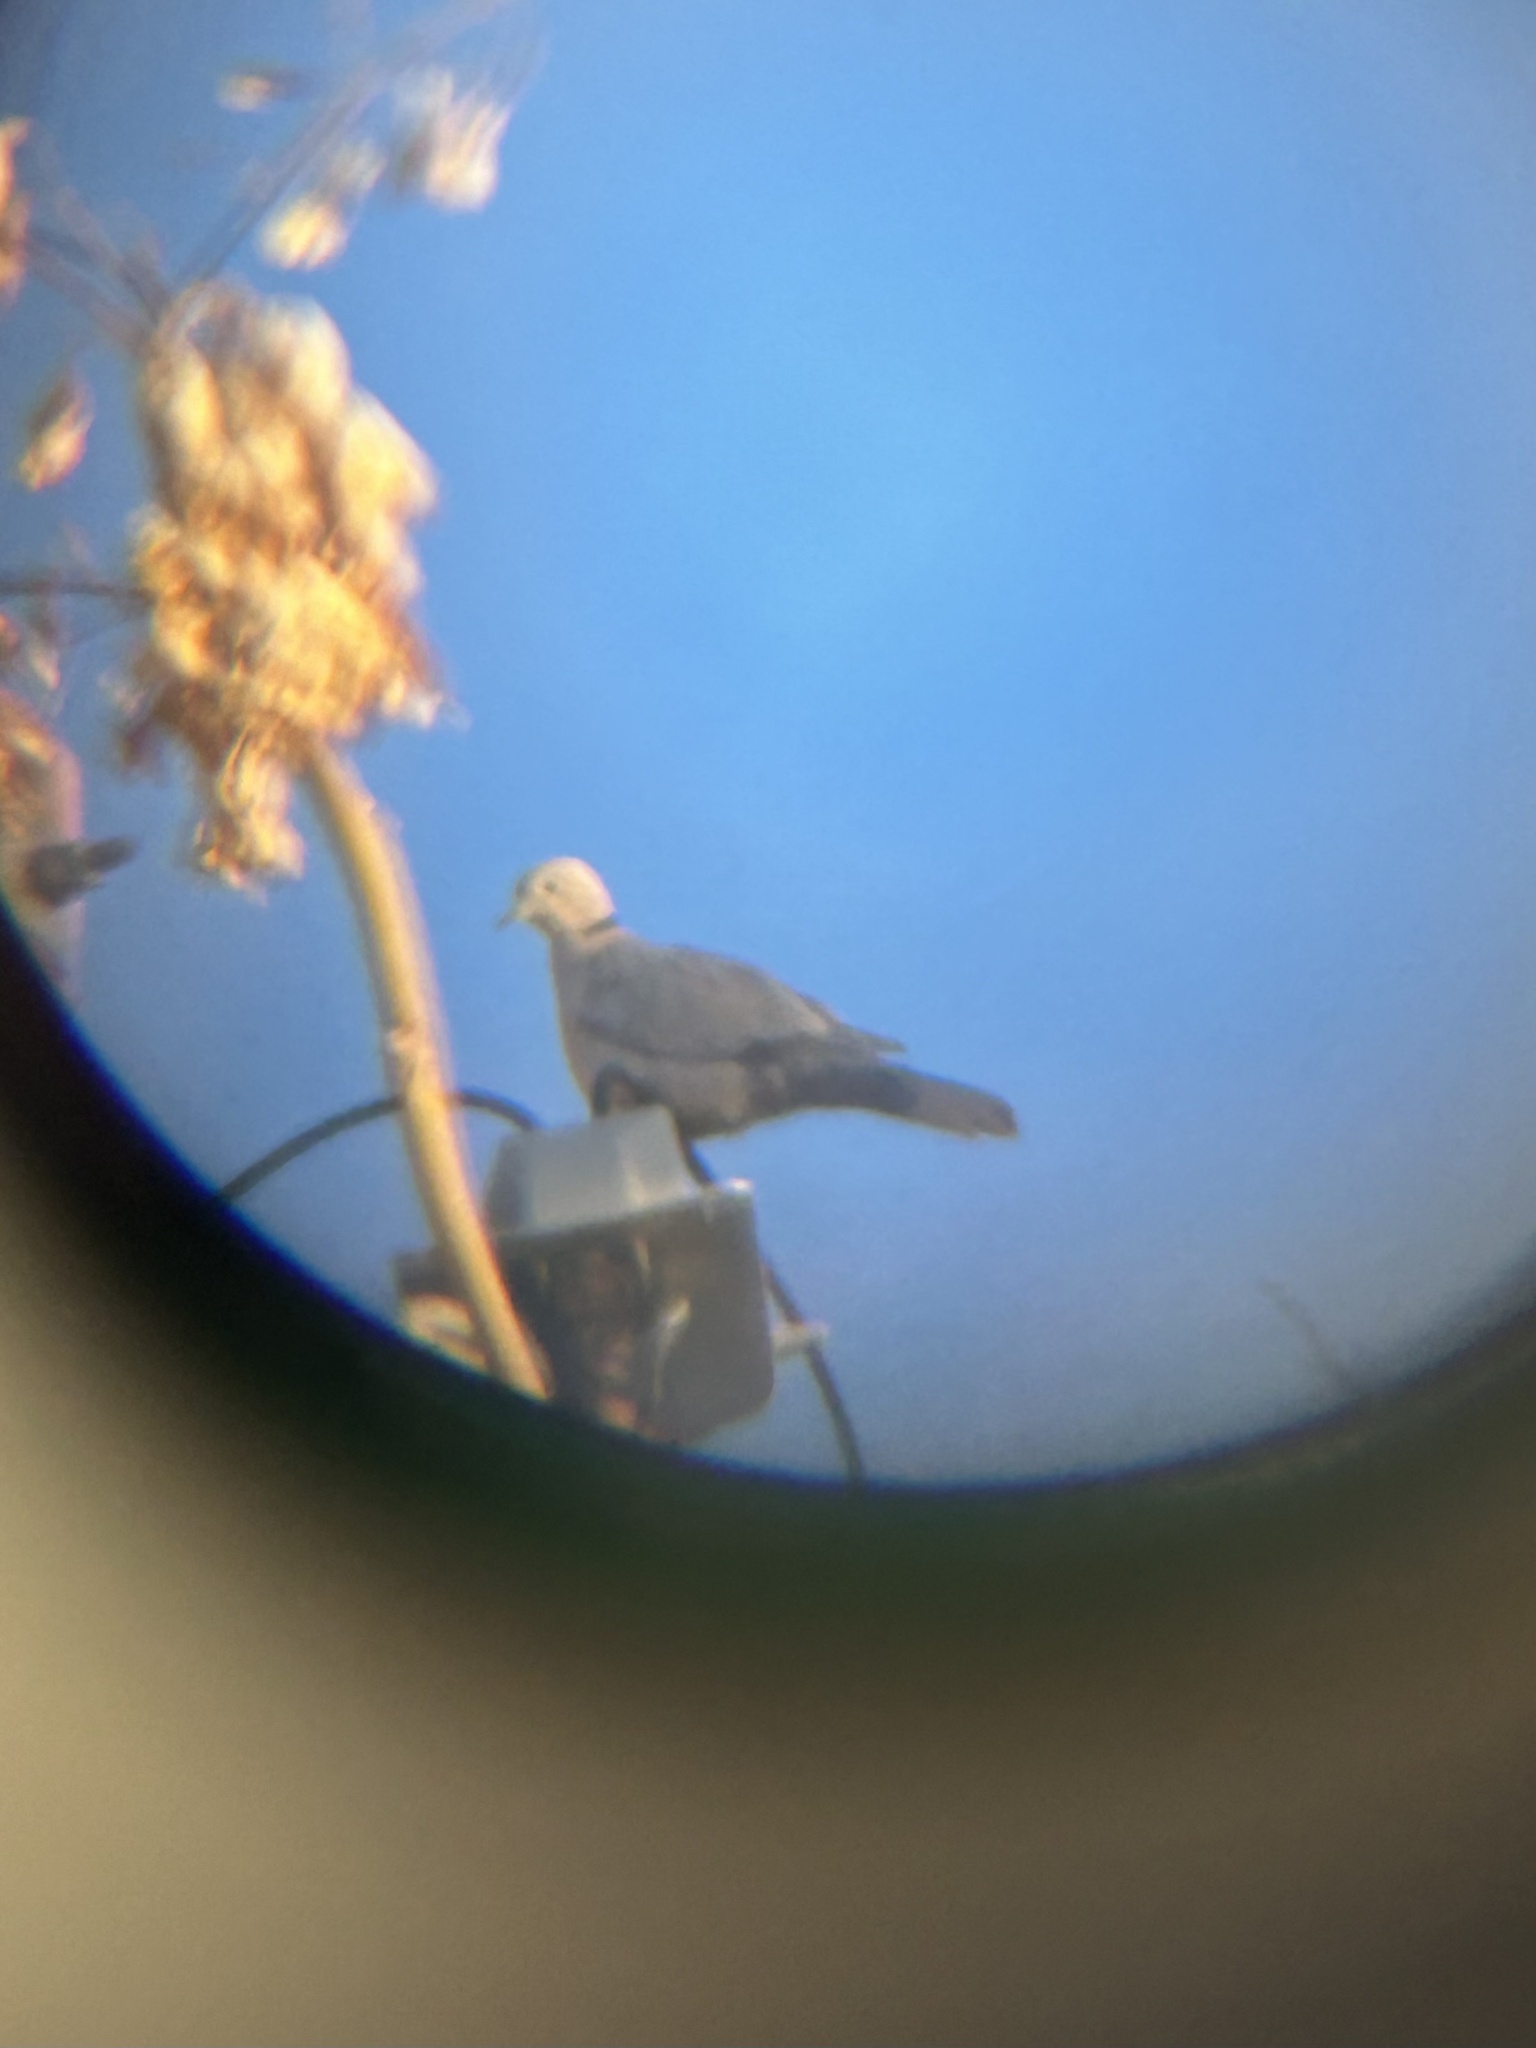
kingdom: Animalia
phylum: Chordata
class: Aves
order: Columbiformes
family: Columbidae
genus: Streptopelia
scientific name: Streptopelia decaocto
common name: Eurasian collared dove
